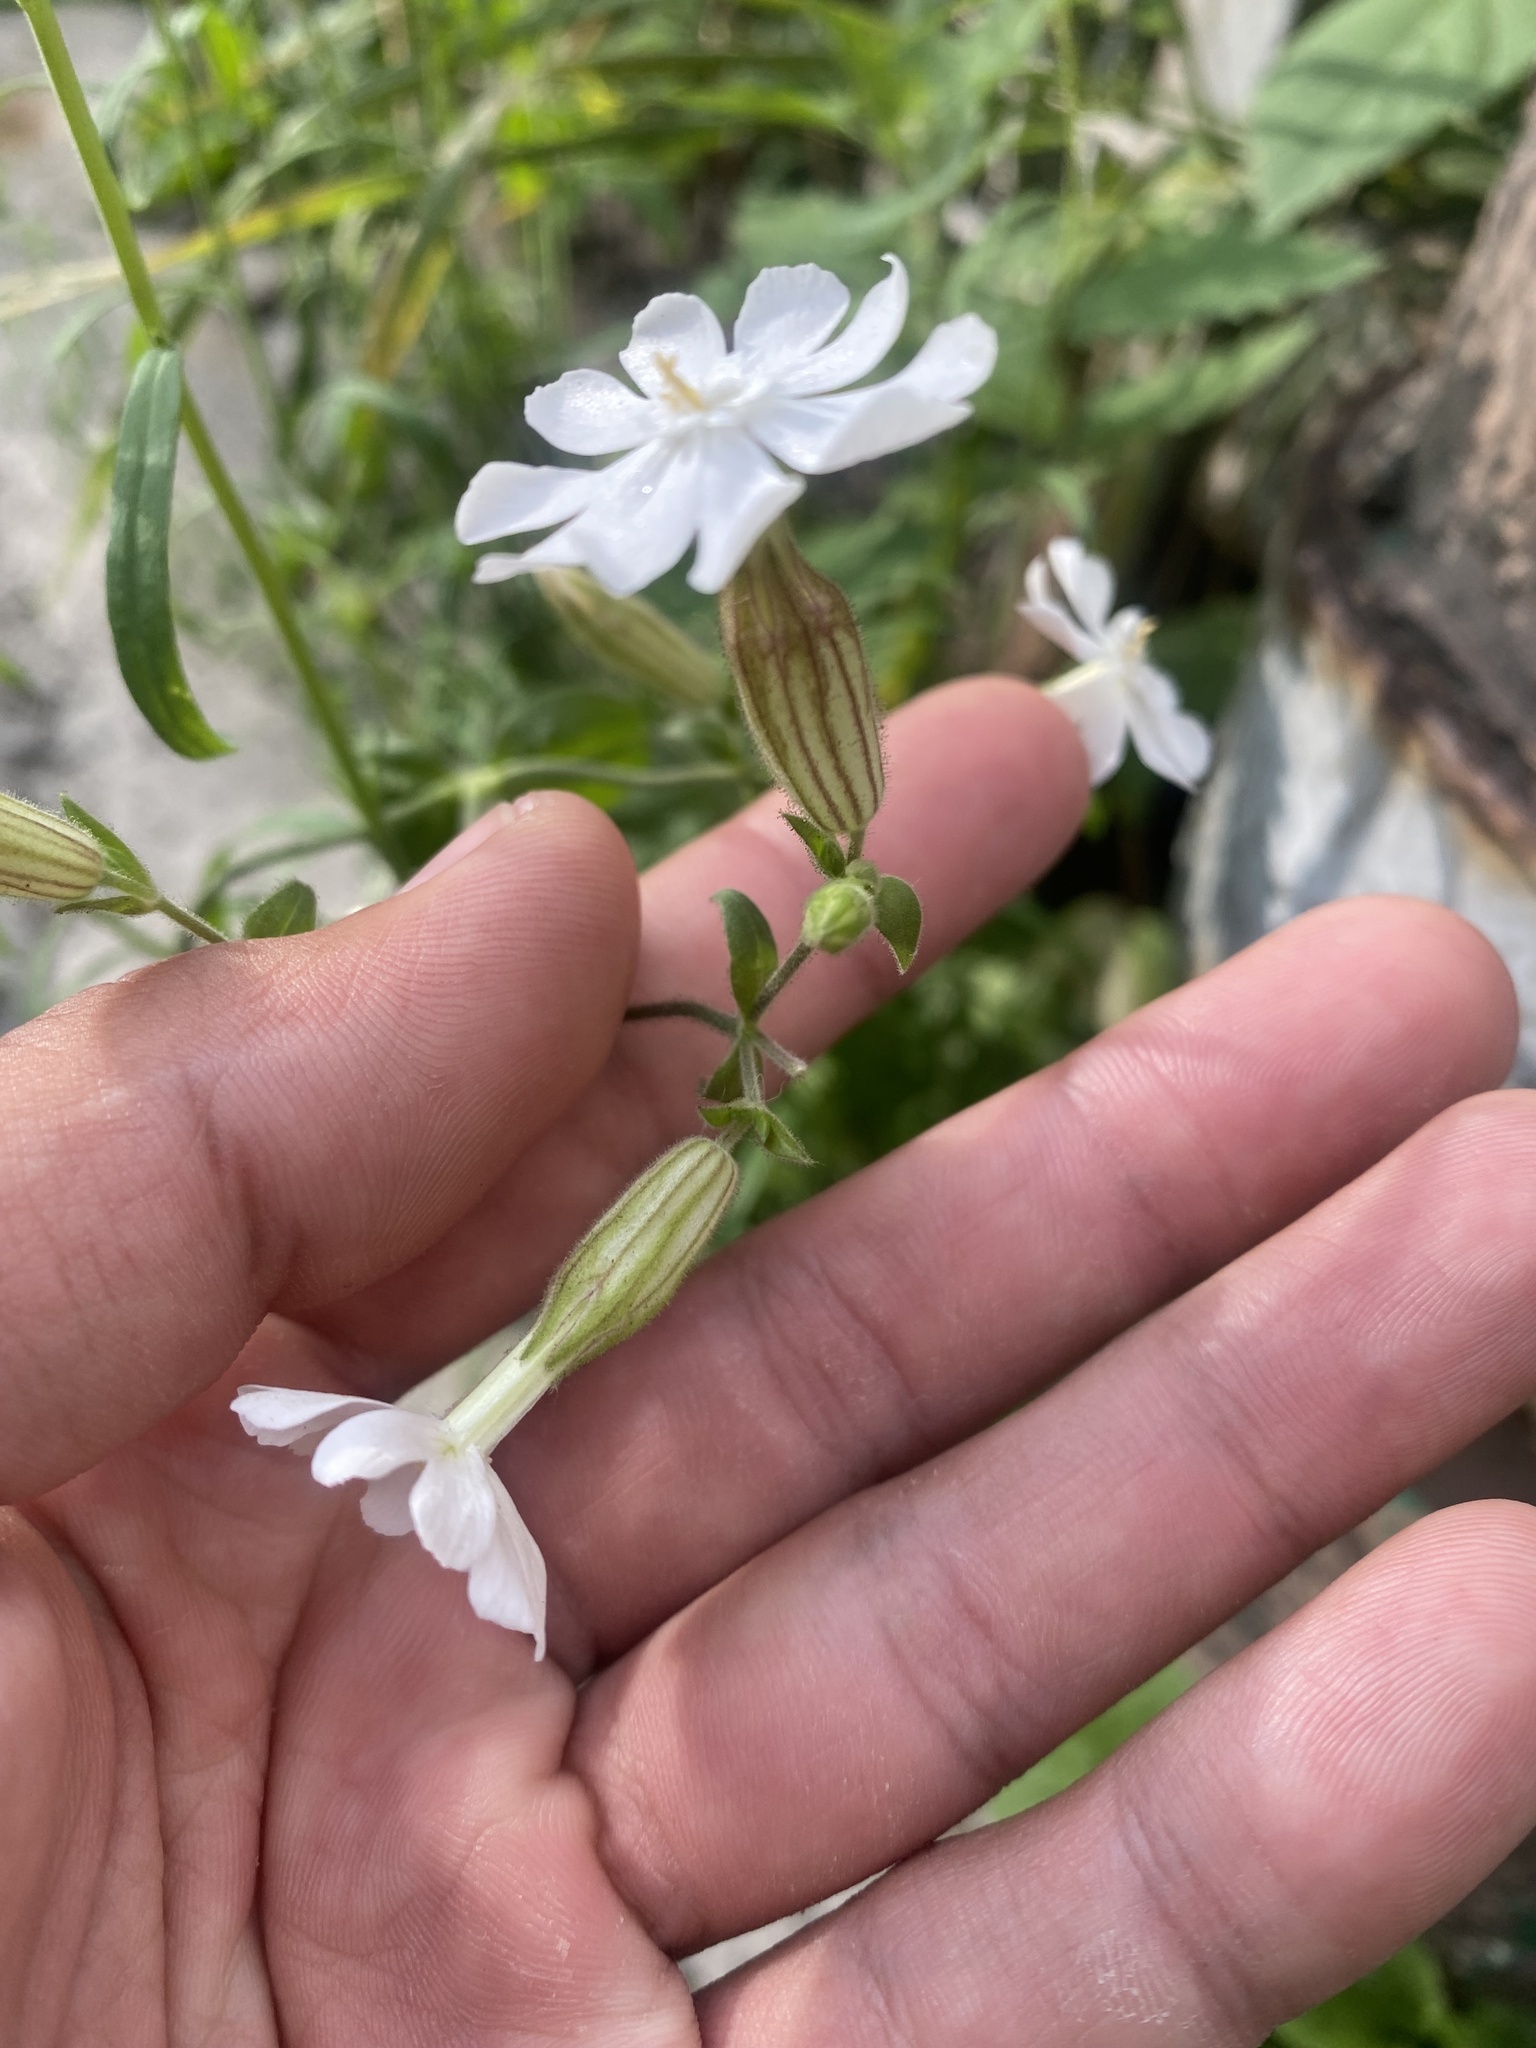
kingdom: Plantae
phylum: Tracheophyta
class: Magnoliopsida
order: Caryophyllales
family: Caryophyllaceae
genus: Silene
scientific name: Silene latifolia
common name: White campion
